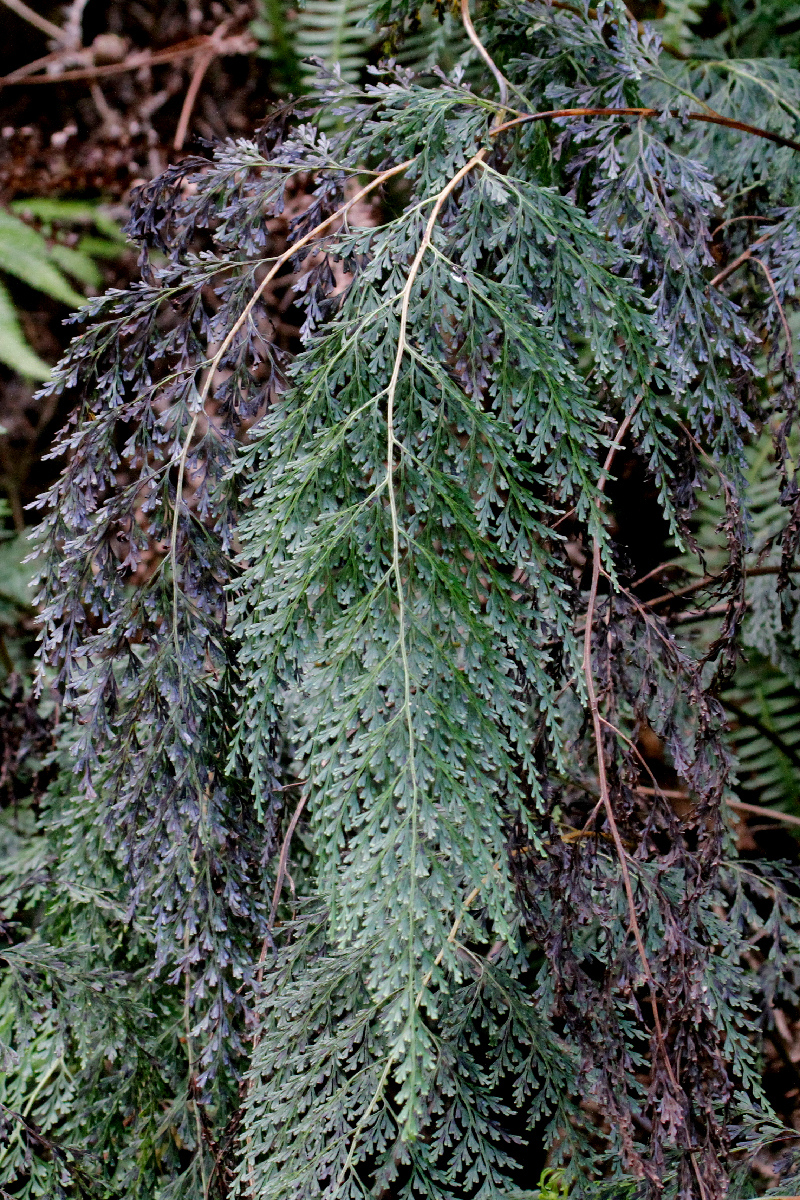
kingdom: Plantae
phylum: Tracheophyta
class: Polypodiopsida
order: Polypodiales
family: Lindsaeaceae
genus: Odontosoria
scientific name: Odontosoria chinensis
